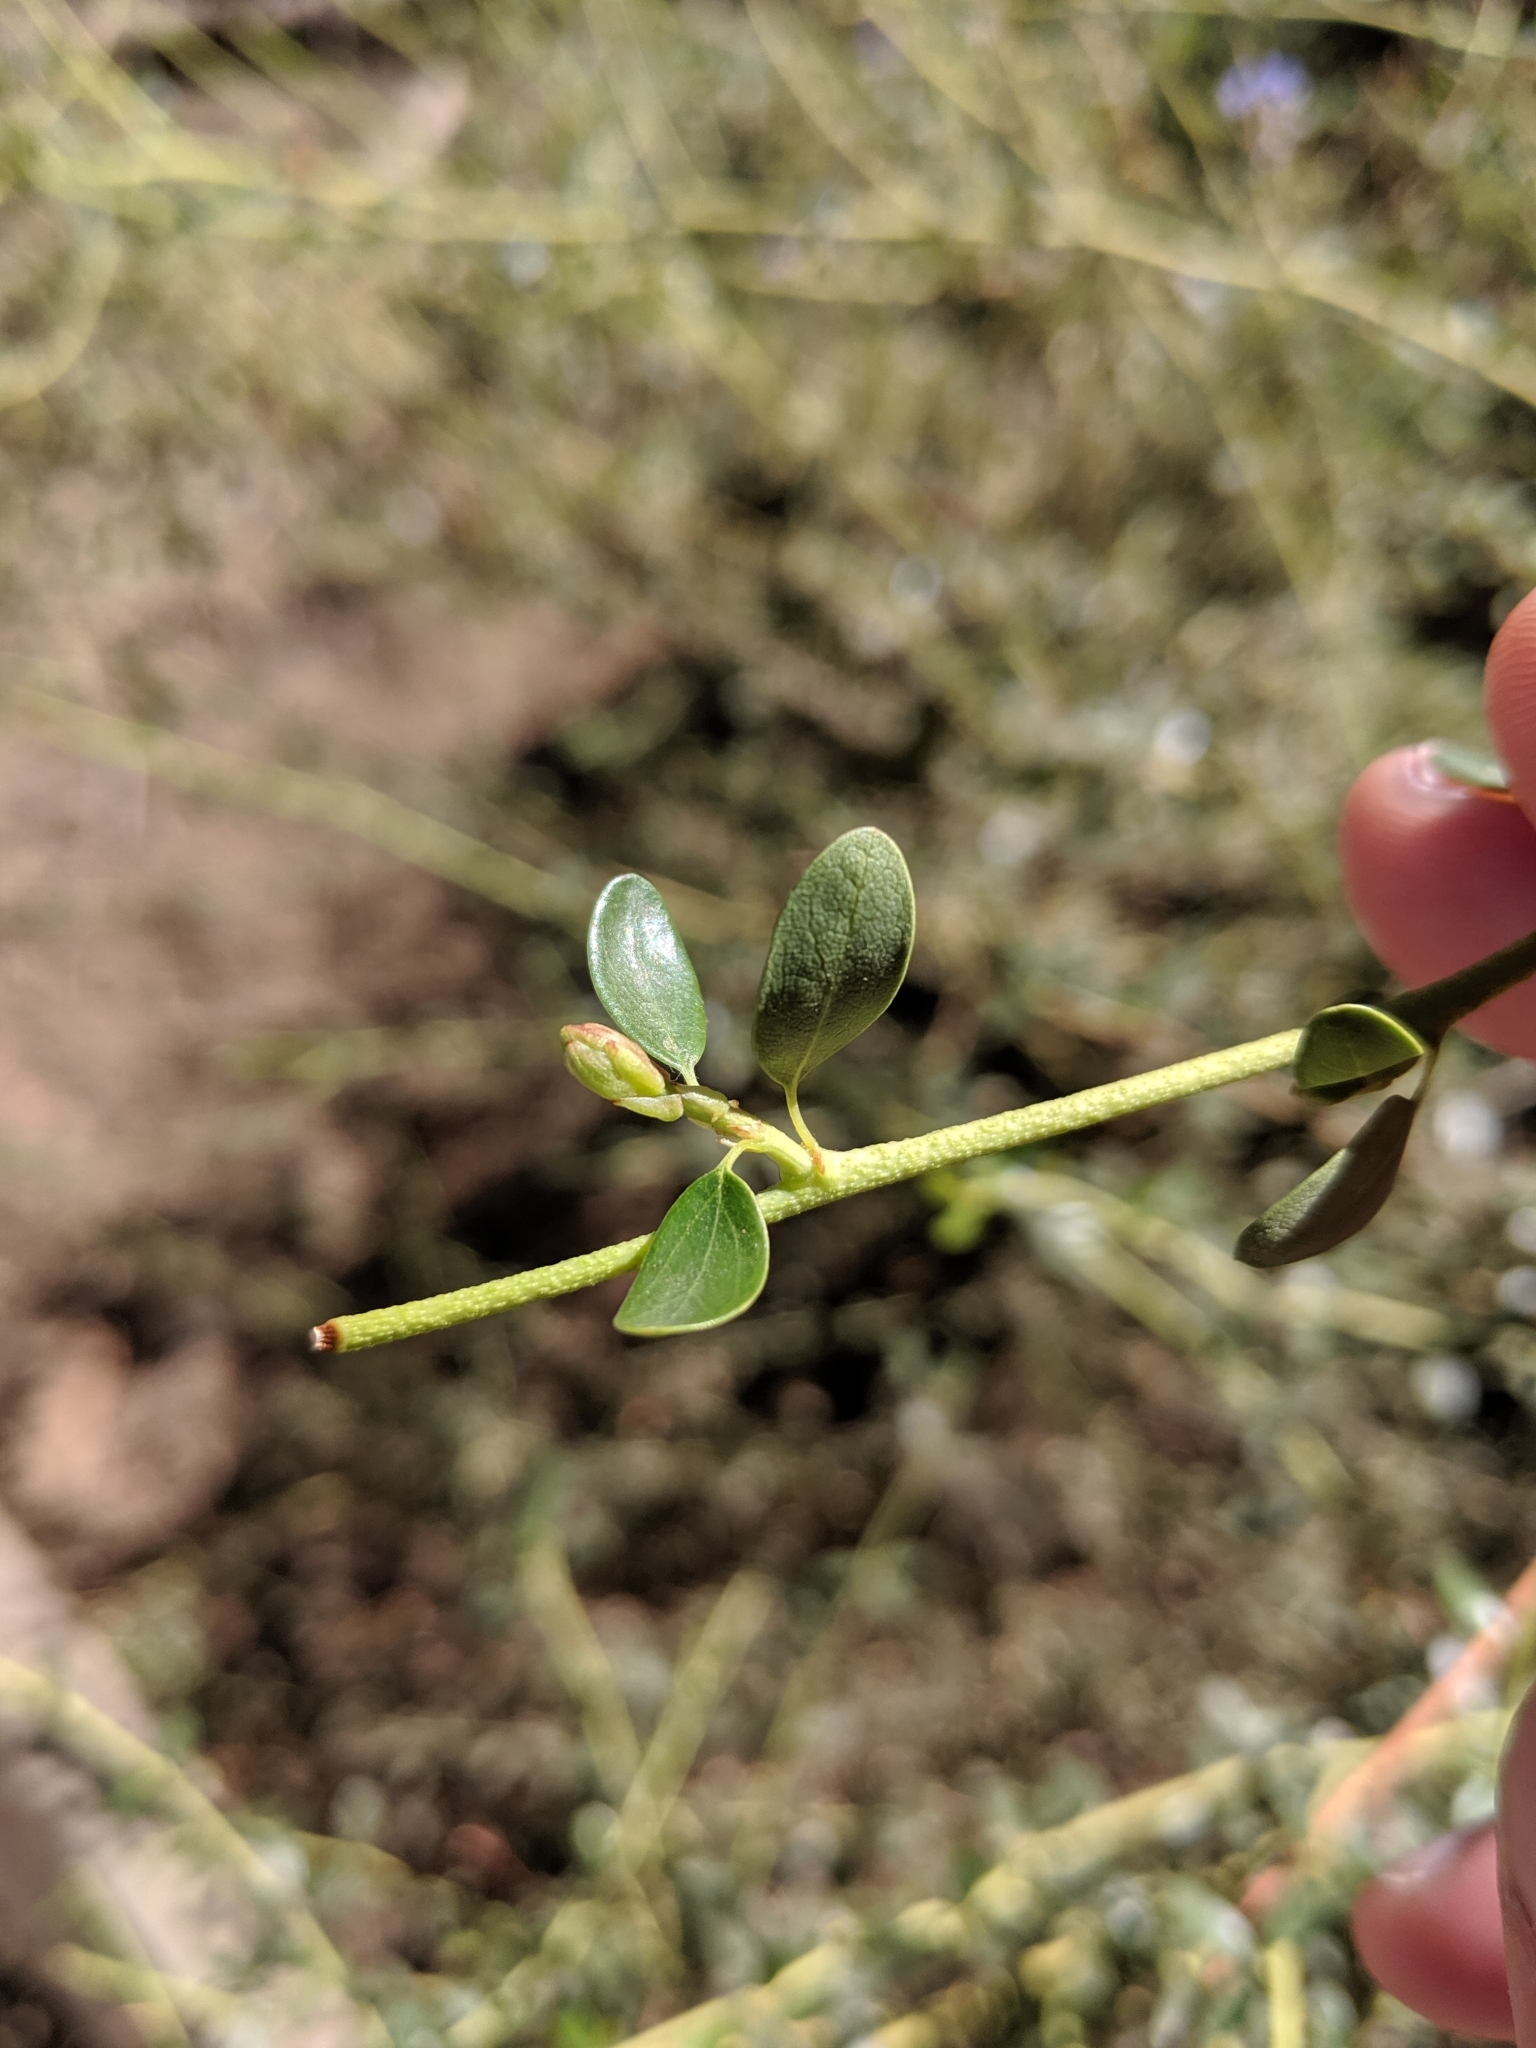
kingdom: Plantae
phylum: Tracheophyta
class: Magnoliopsida
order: Rosales
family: Rhamnaceae
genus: Ceanothus
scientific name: Ceanothus parvifolius
